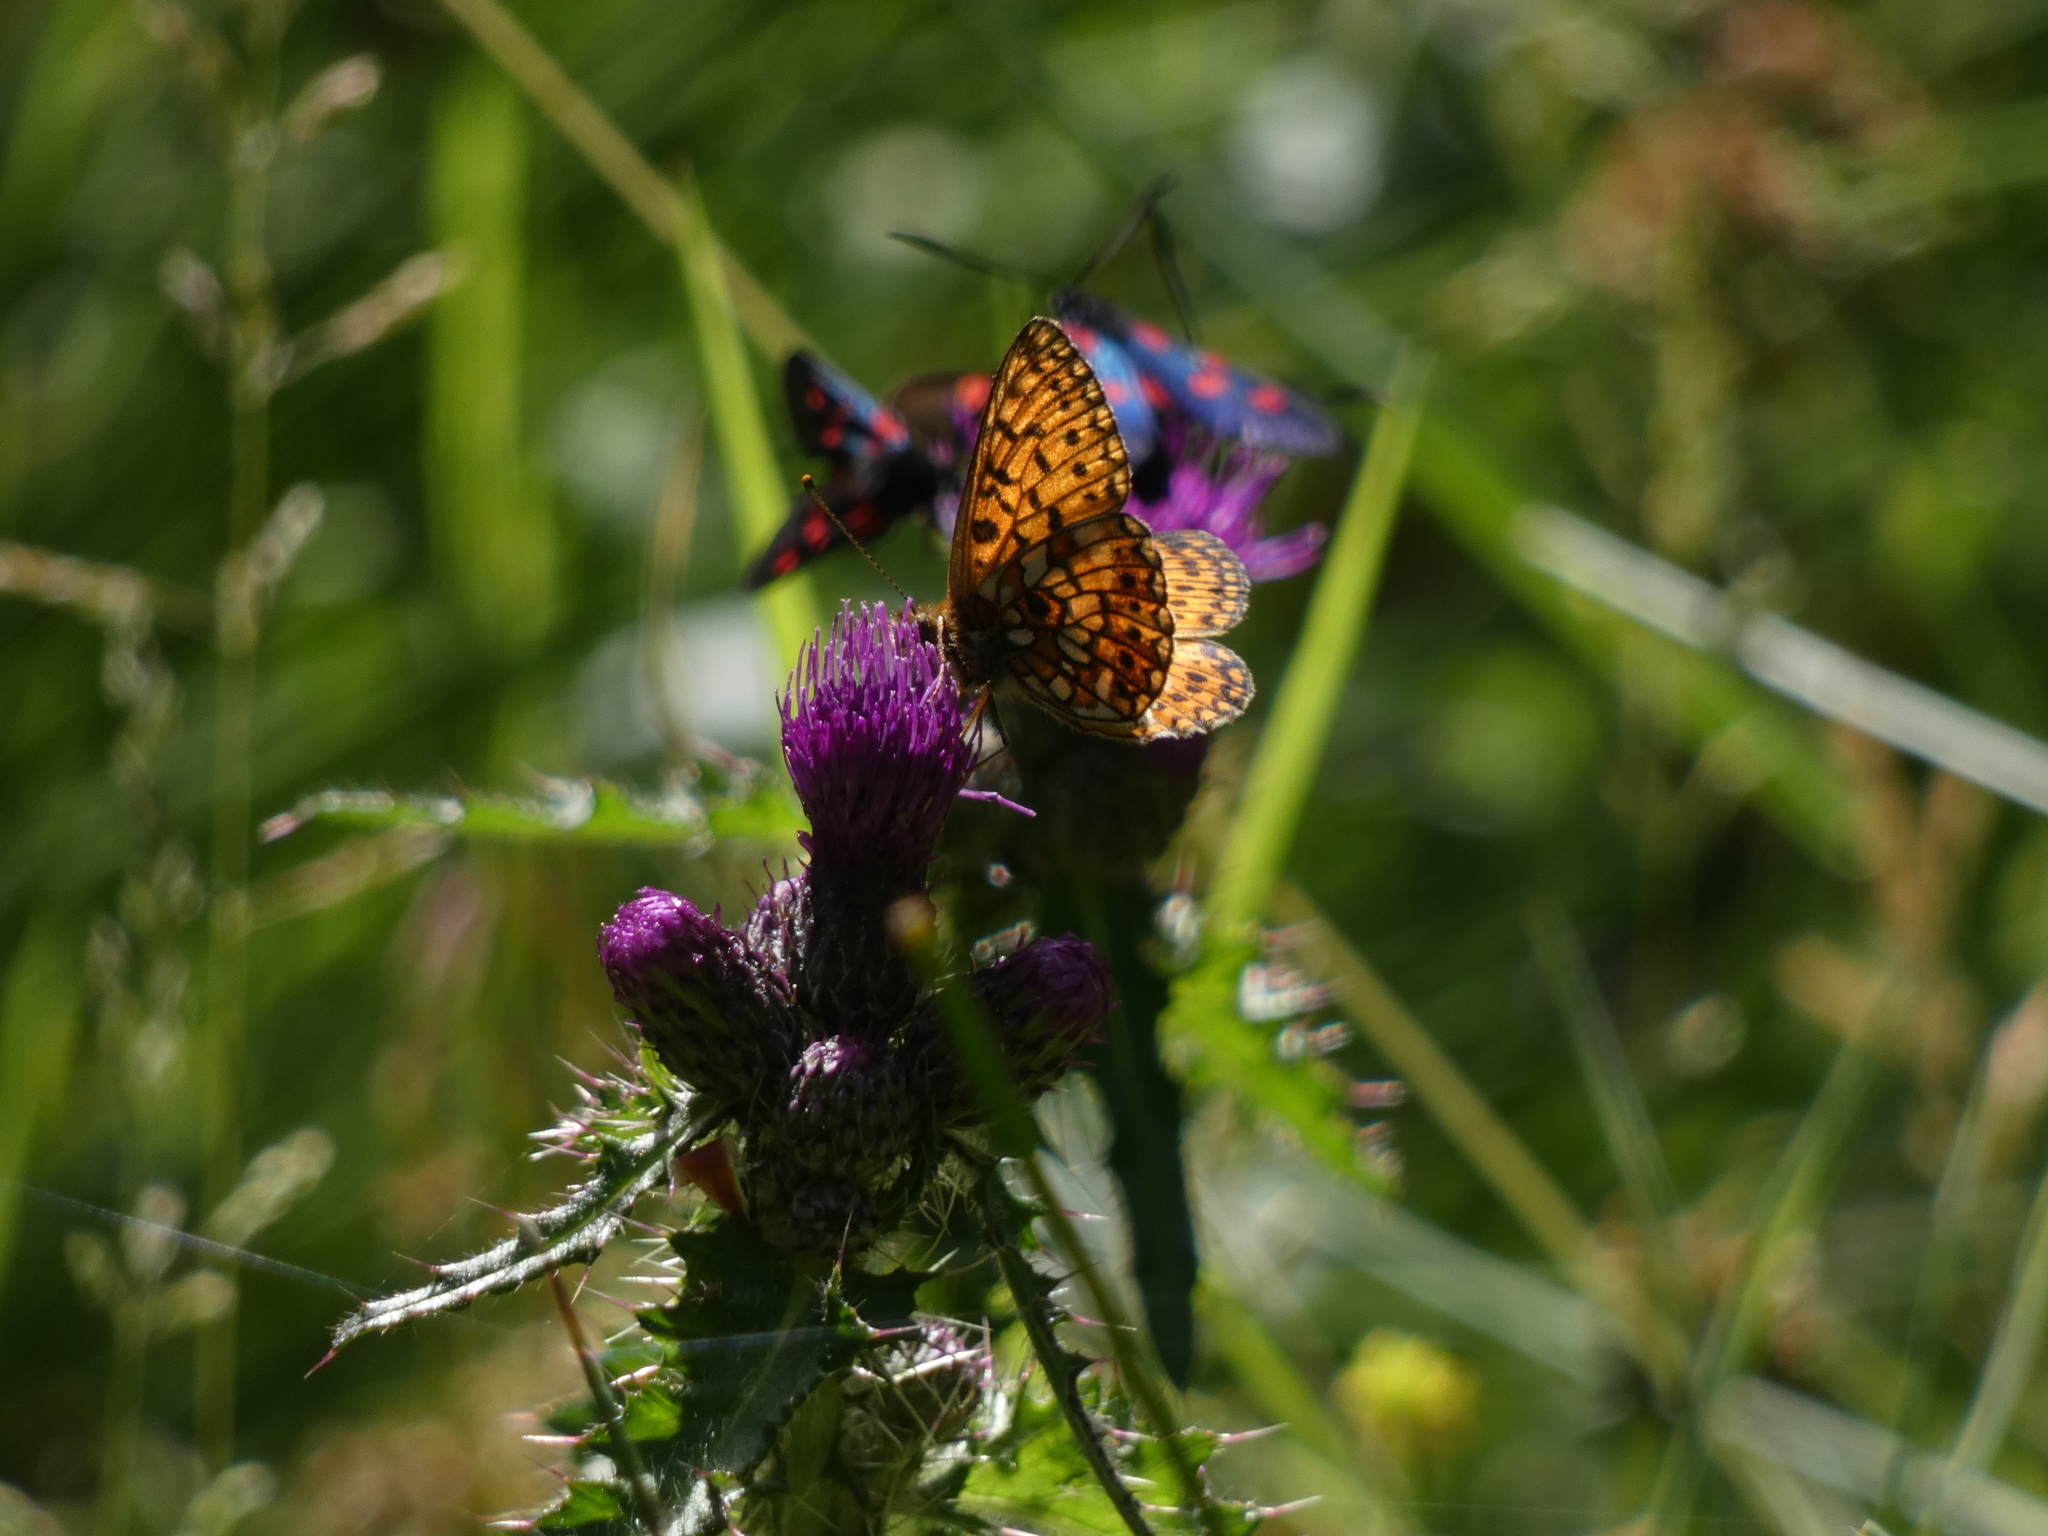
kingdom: Animalia
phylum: Arthropoda
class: Insecta
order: Lepidoptera
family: Nymphalidae
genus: Boloria
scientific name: Boloria selene
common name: Small pearl-bordered fritillary
